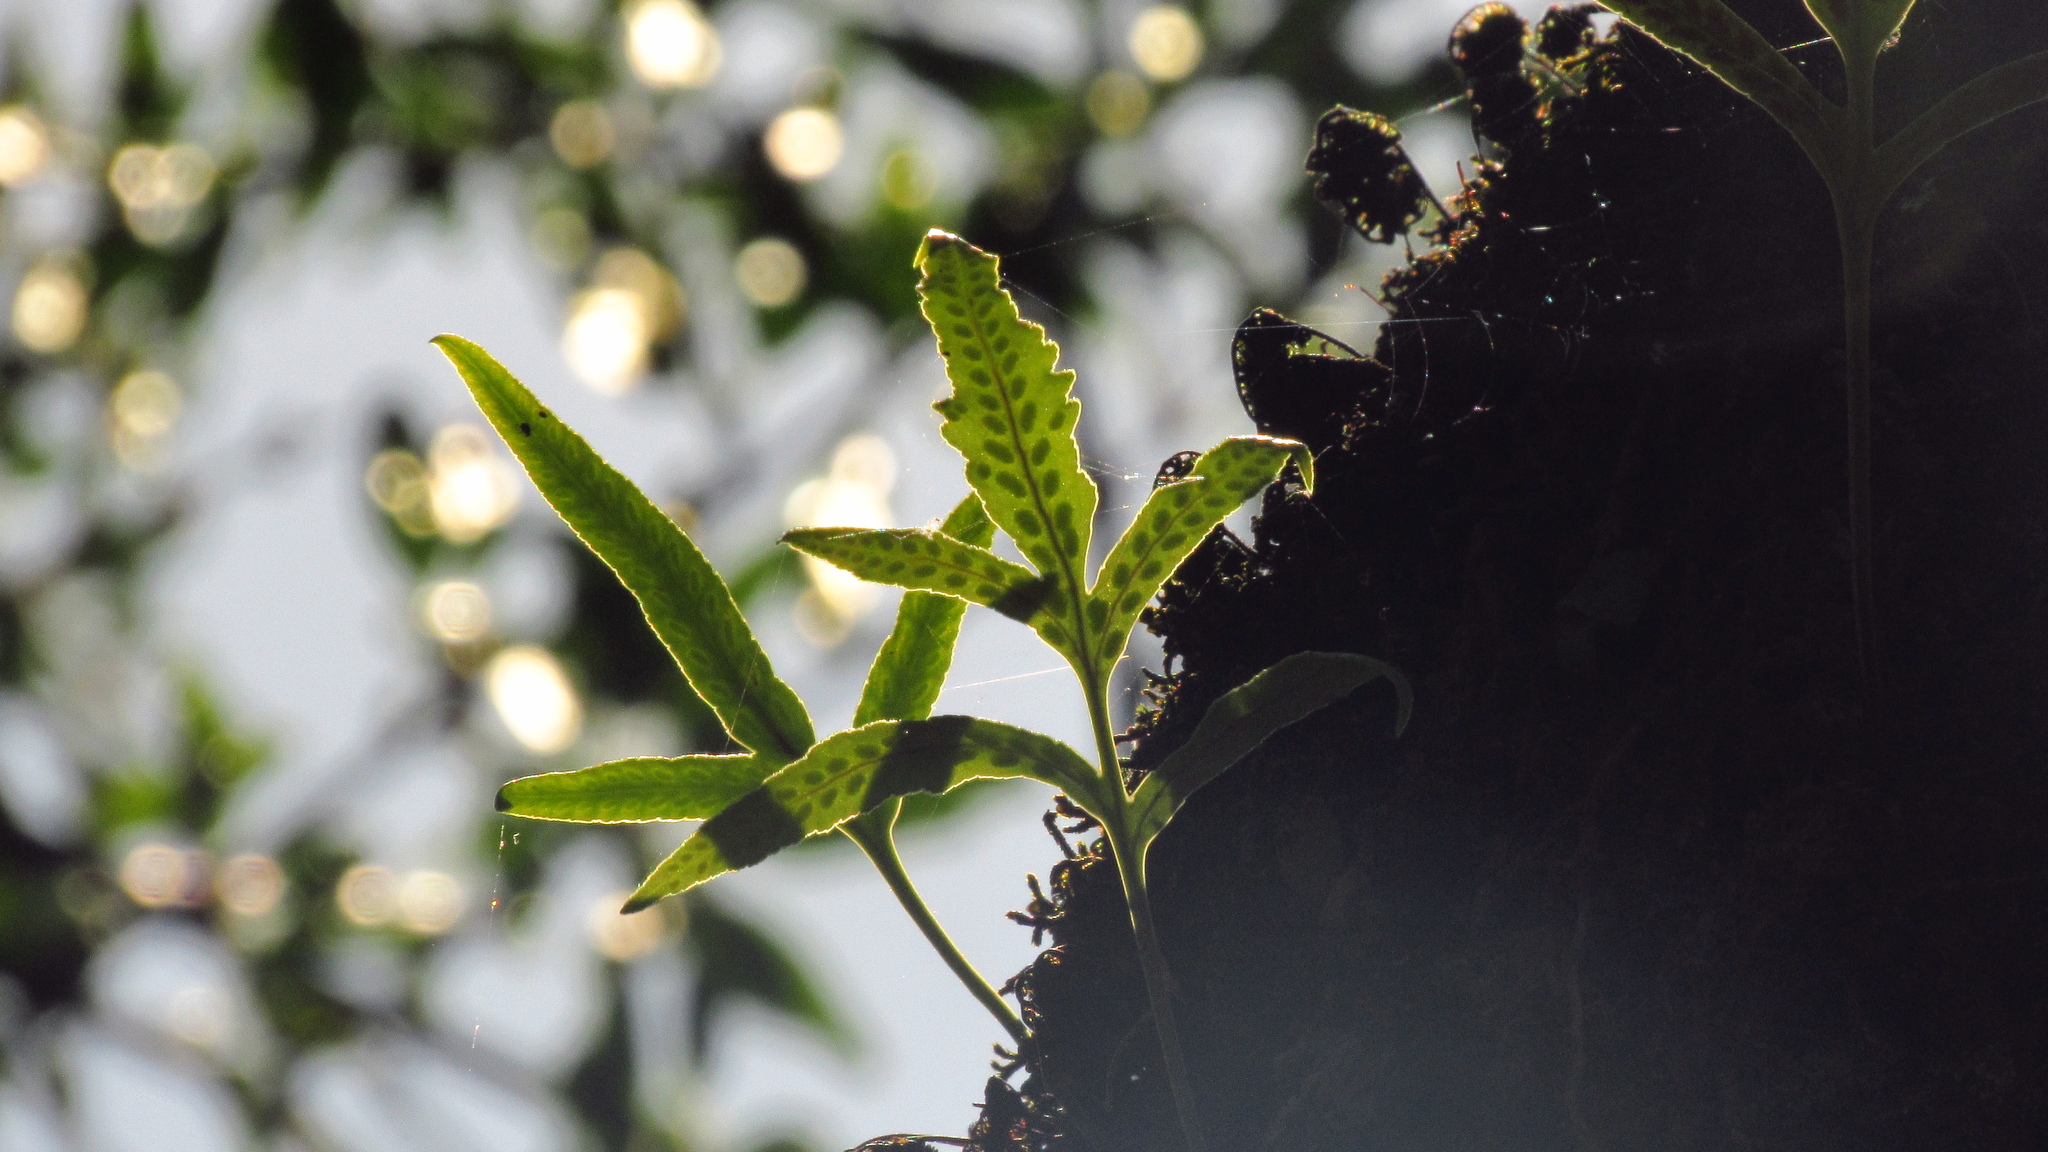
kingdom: Plantae
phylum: Tracheophyta
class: Polypodiopsida
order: Polypodiales
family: Polypodiaceae
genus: Synammia
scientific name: Synammia feuillei
